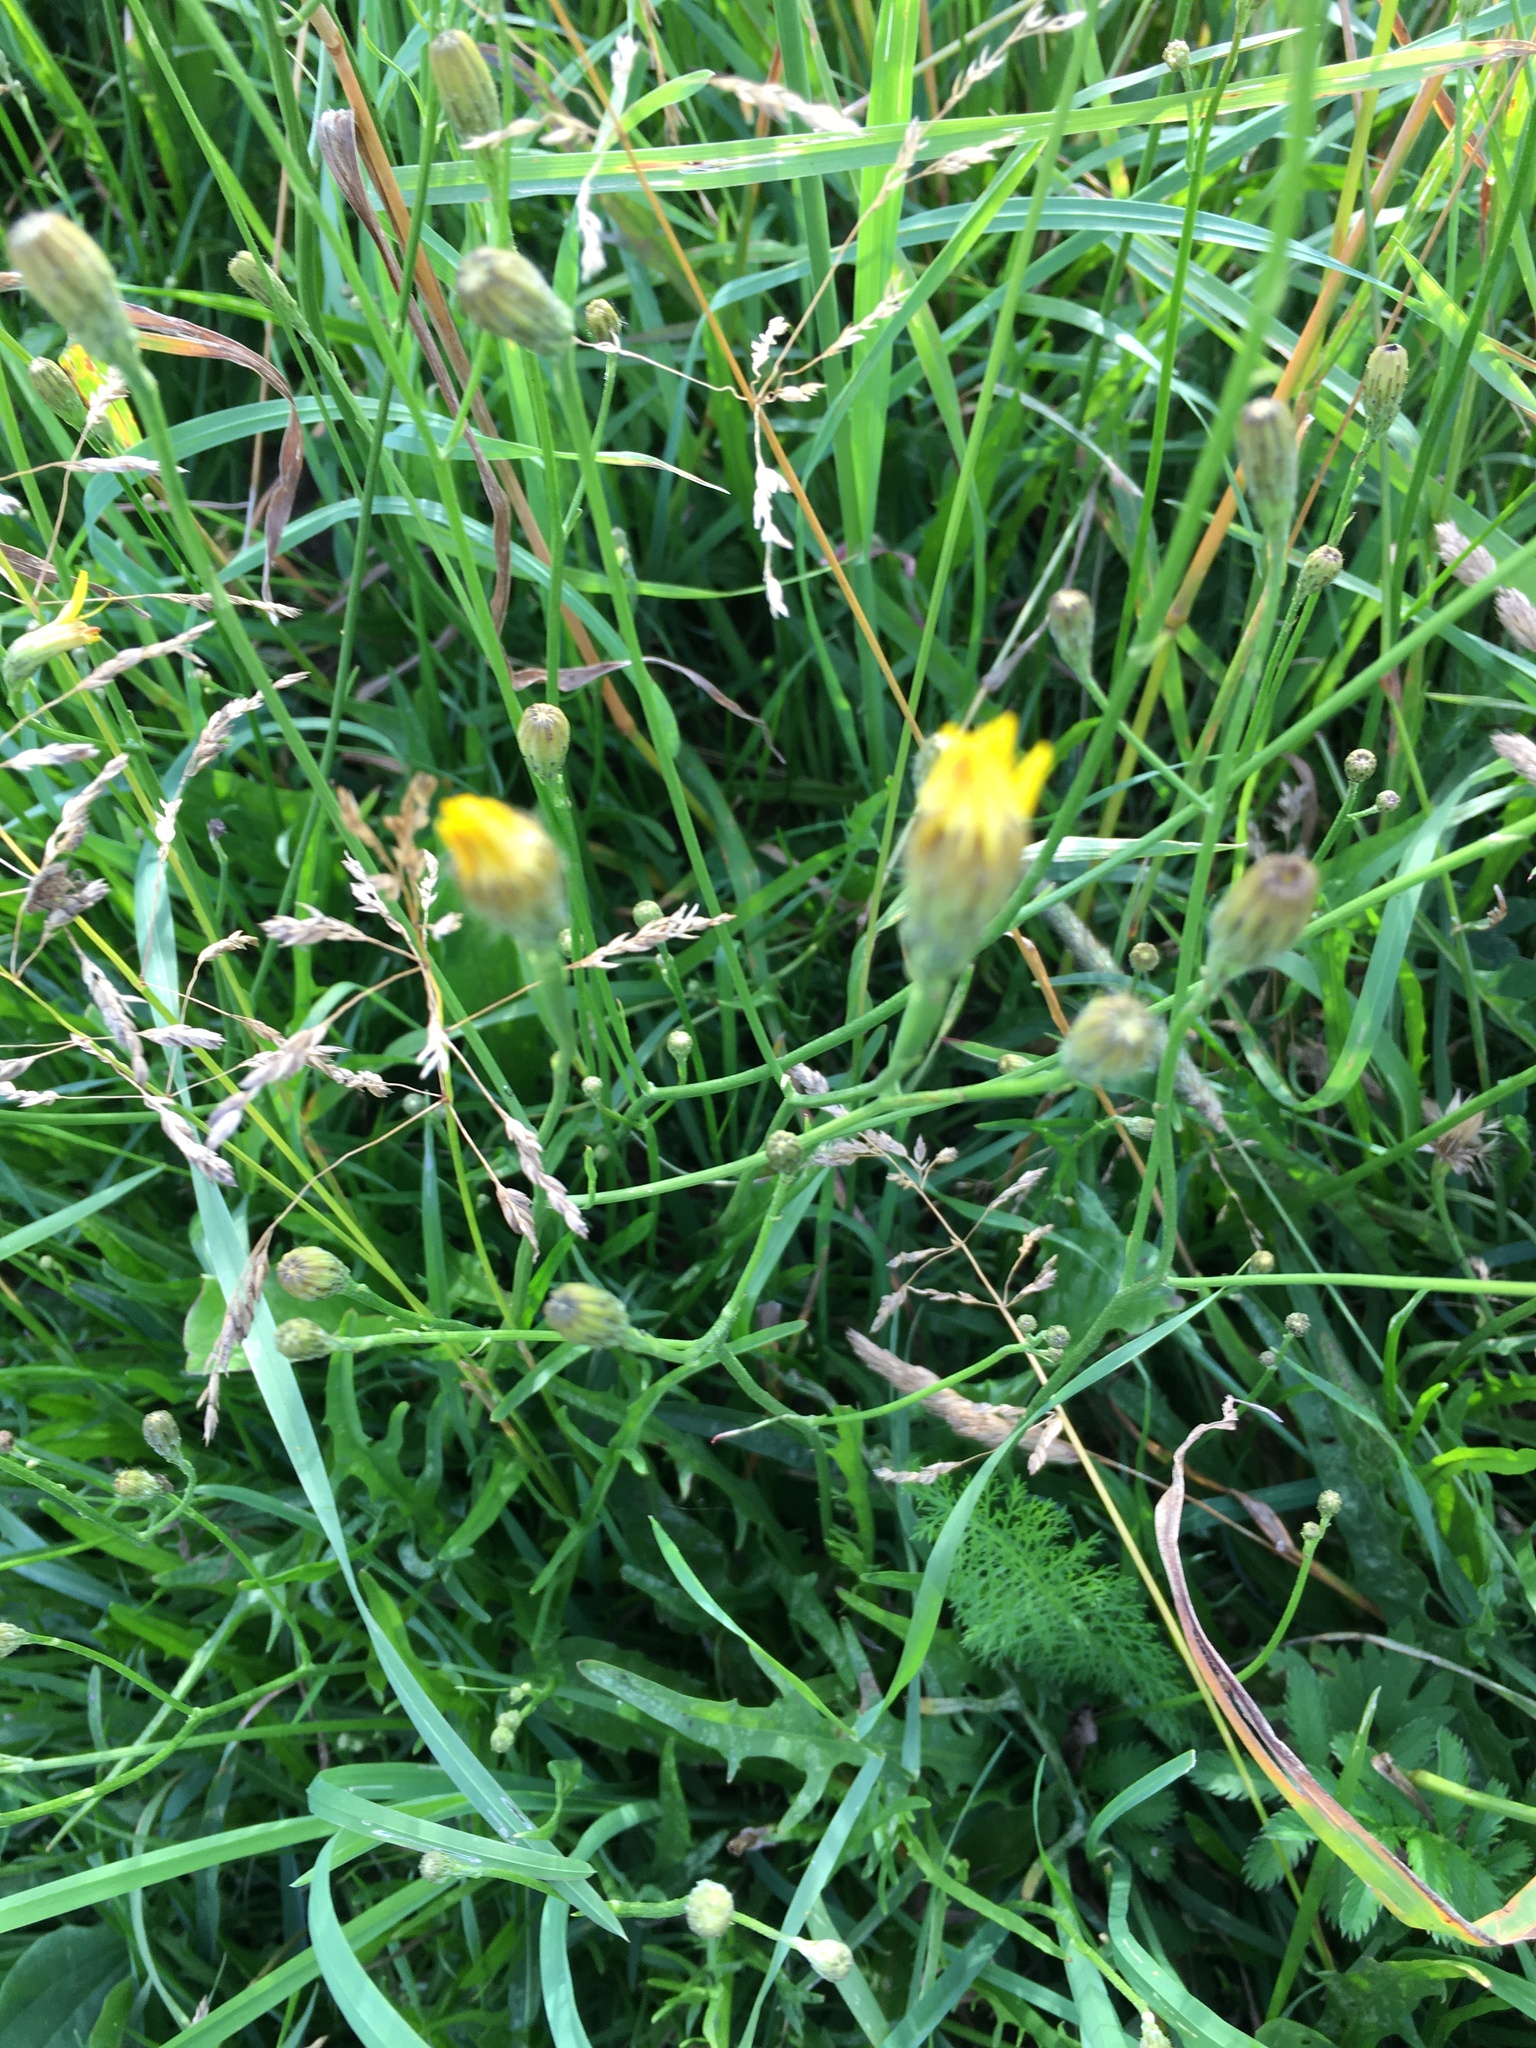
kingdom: Plantae
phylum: Tracheophyta
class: Magnoliopsida
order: Asterales
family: Asteraceae
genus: Scorzoneroides
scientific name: Scorzoneroides autumnalis
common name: Autumn hawkbit
